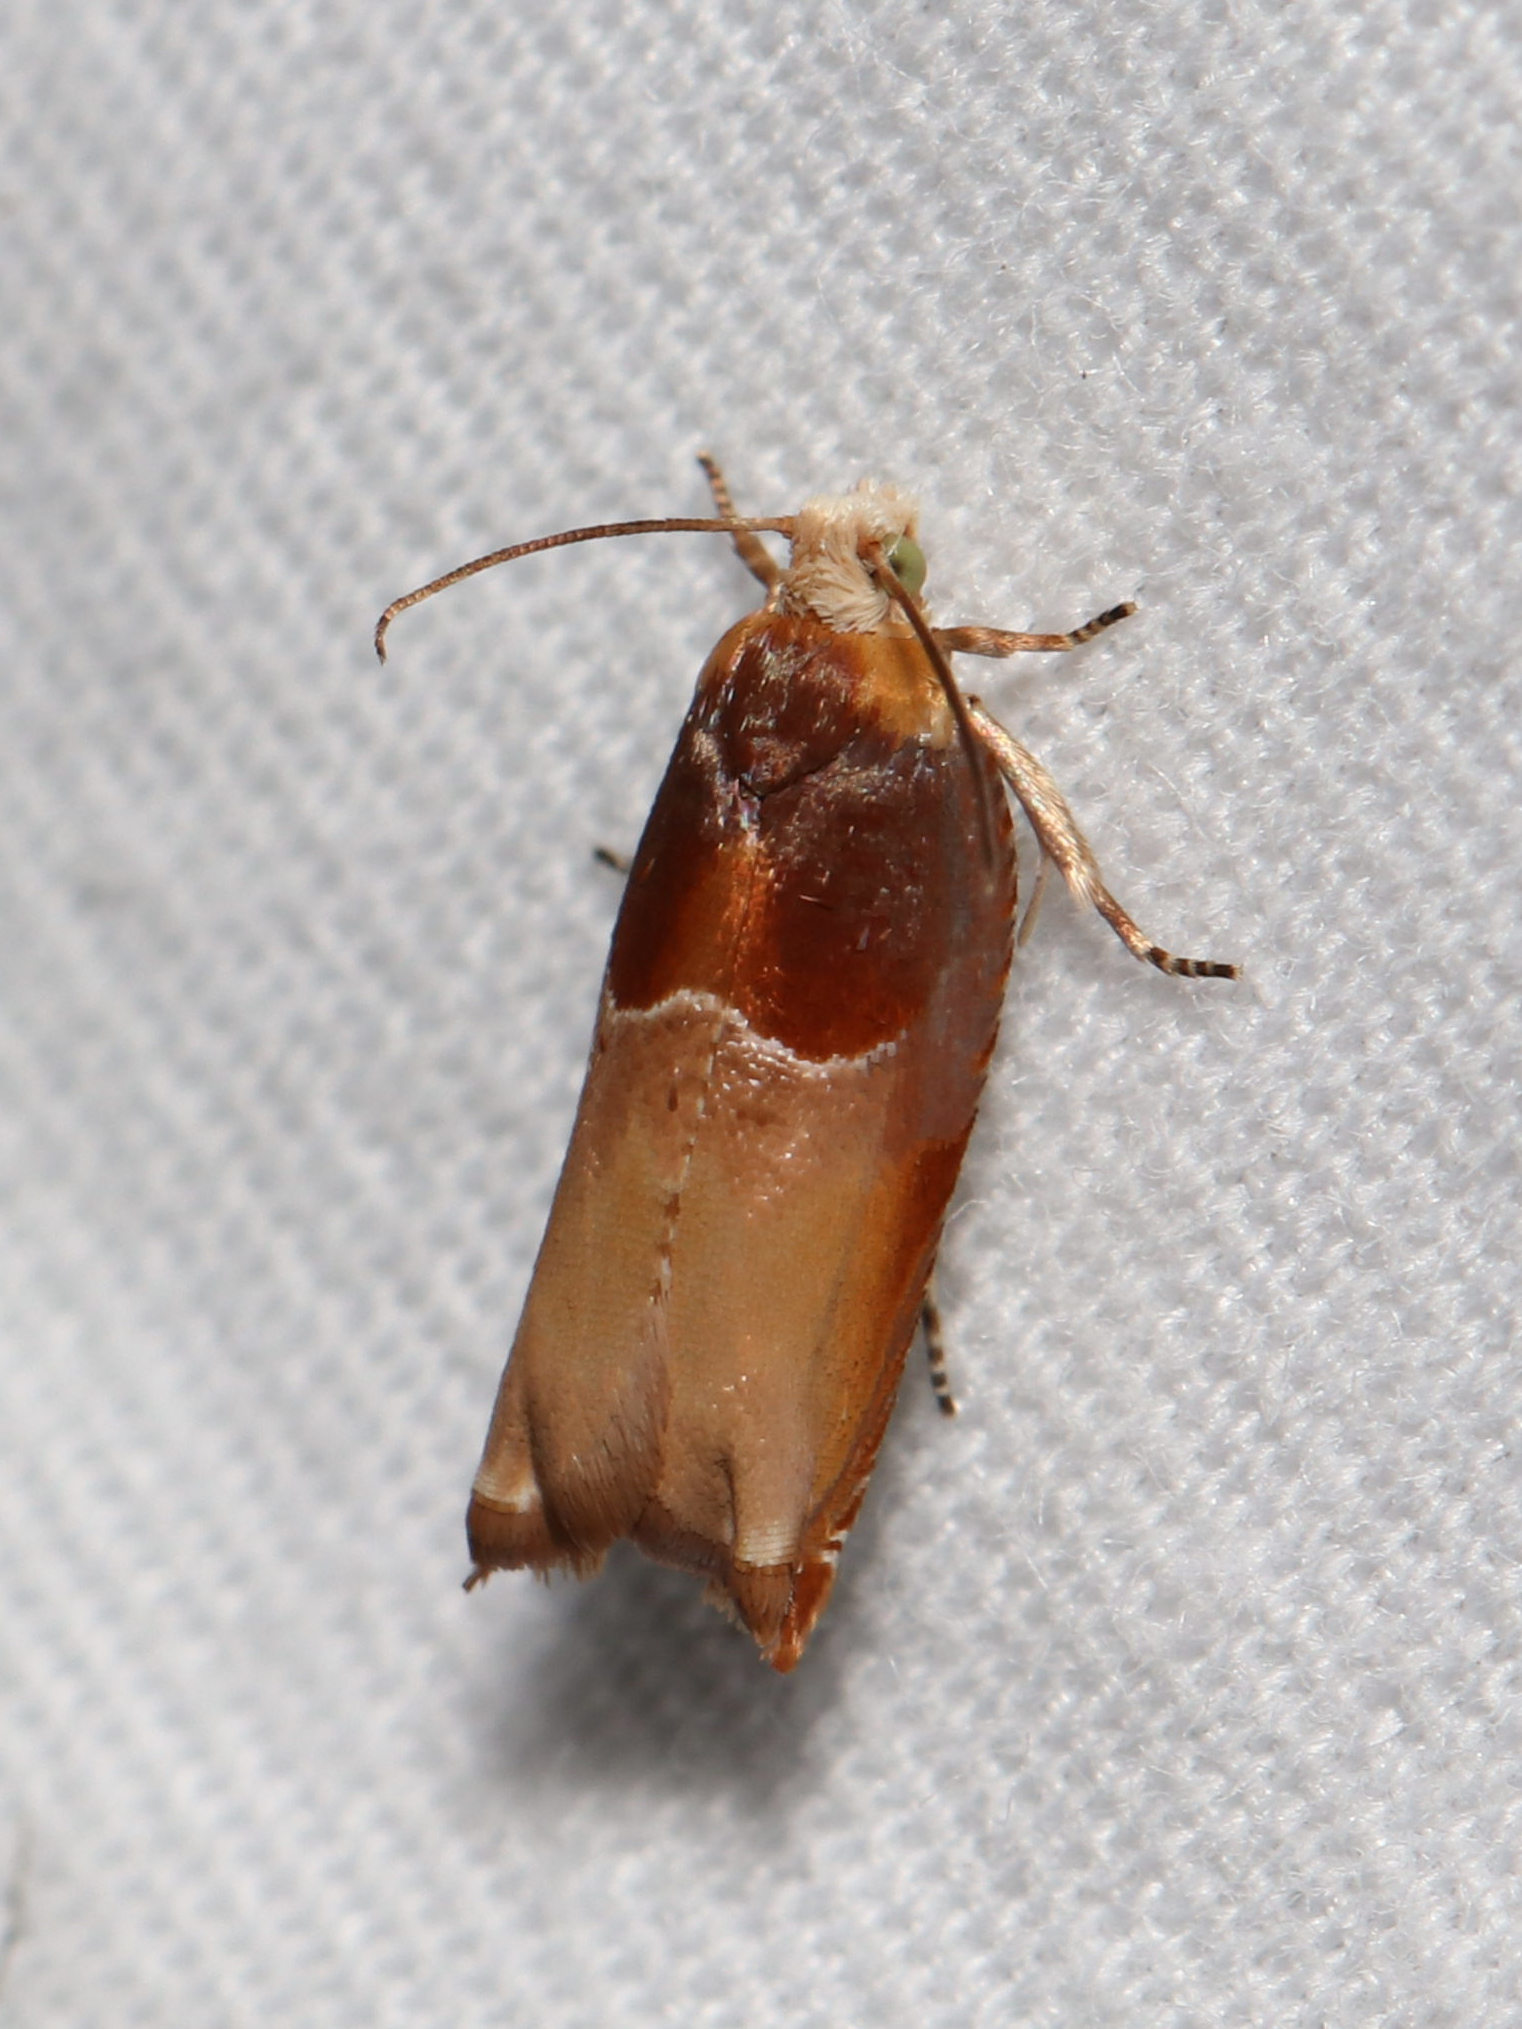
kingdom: Animalia
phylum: Arthropoda
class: Insecta
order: Lepidoptera
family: Tortricidae
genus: Ancylis
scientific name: Ancylis divisana
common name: Two-toned ancylis moth
